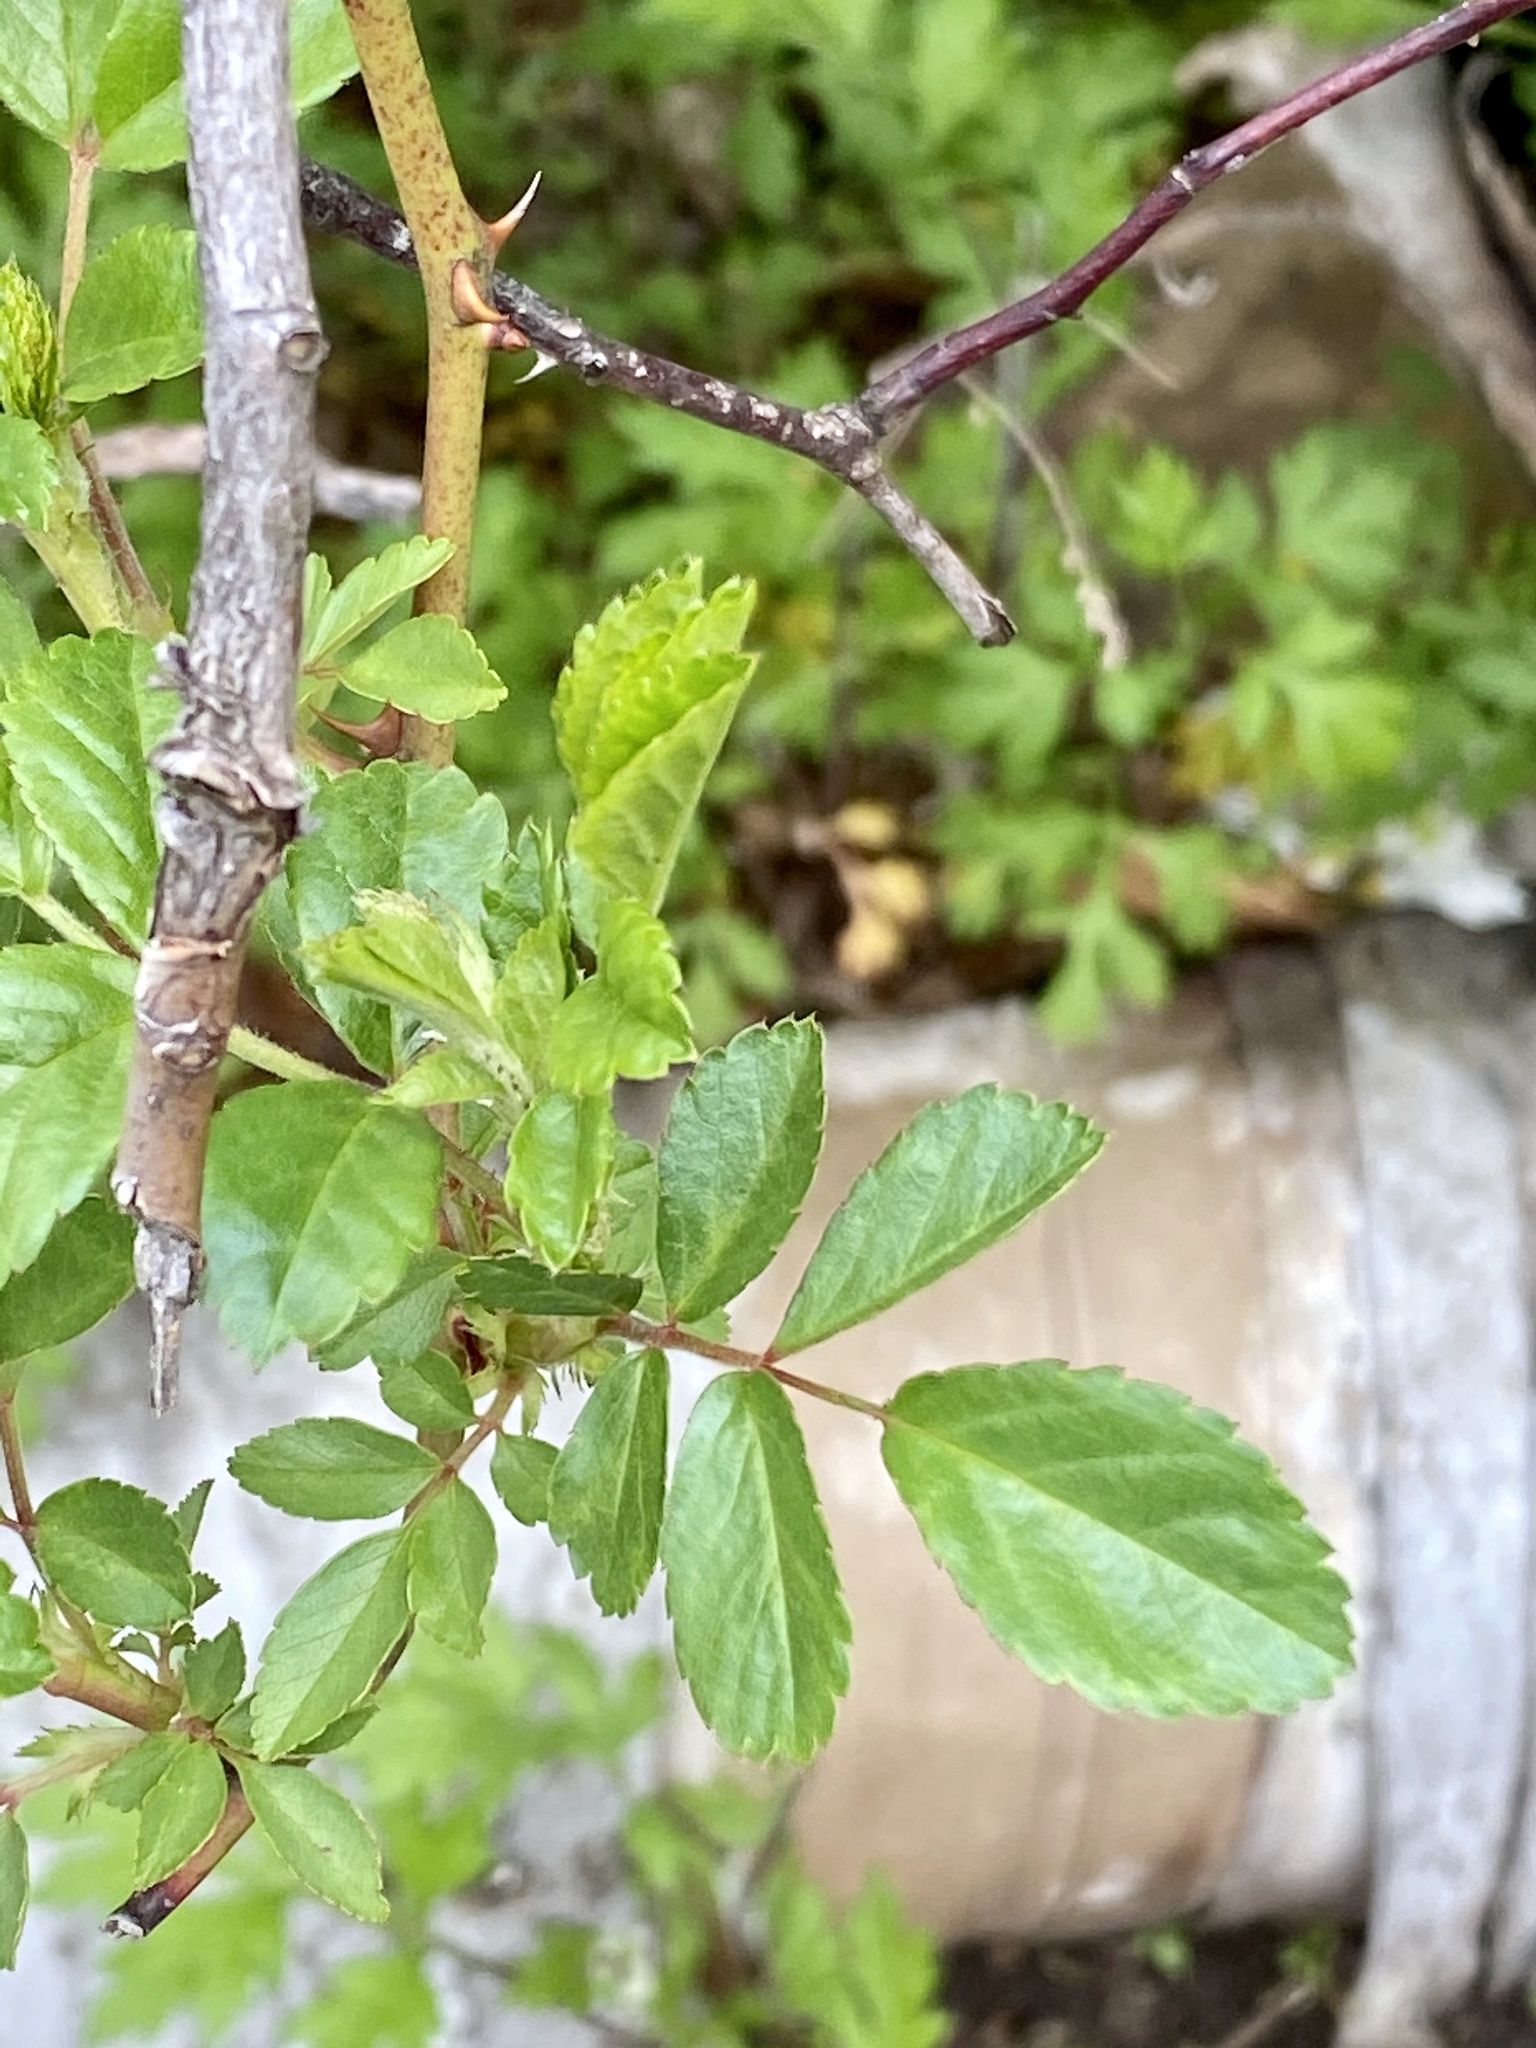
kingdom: Plantae
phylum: Tracheophyta
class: Magnoliopsida
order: Rosales
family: Rosaceae
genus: Rosa
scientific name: Rosa multiflora
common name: Multiflora rose
